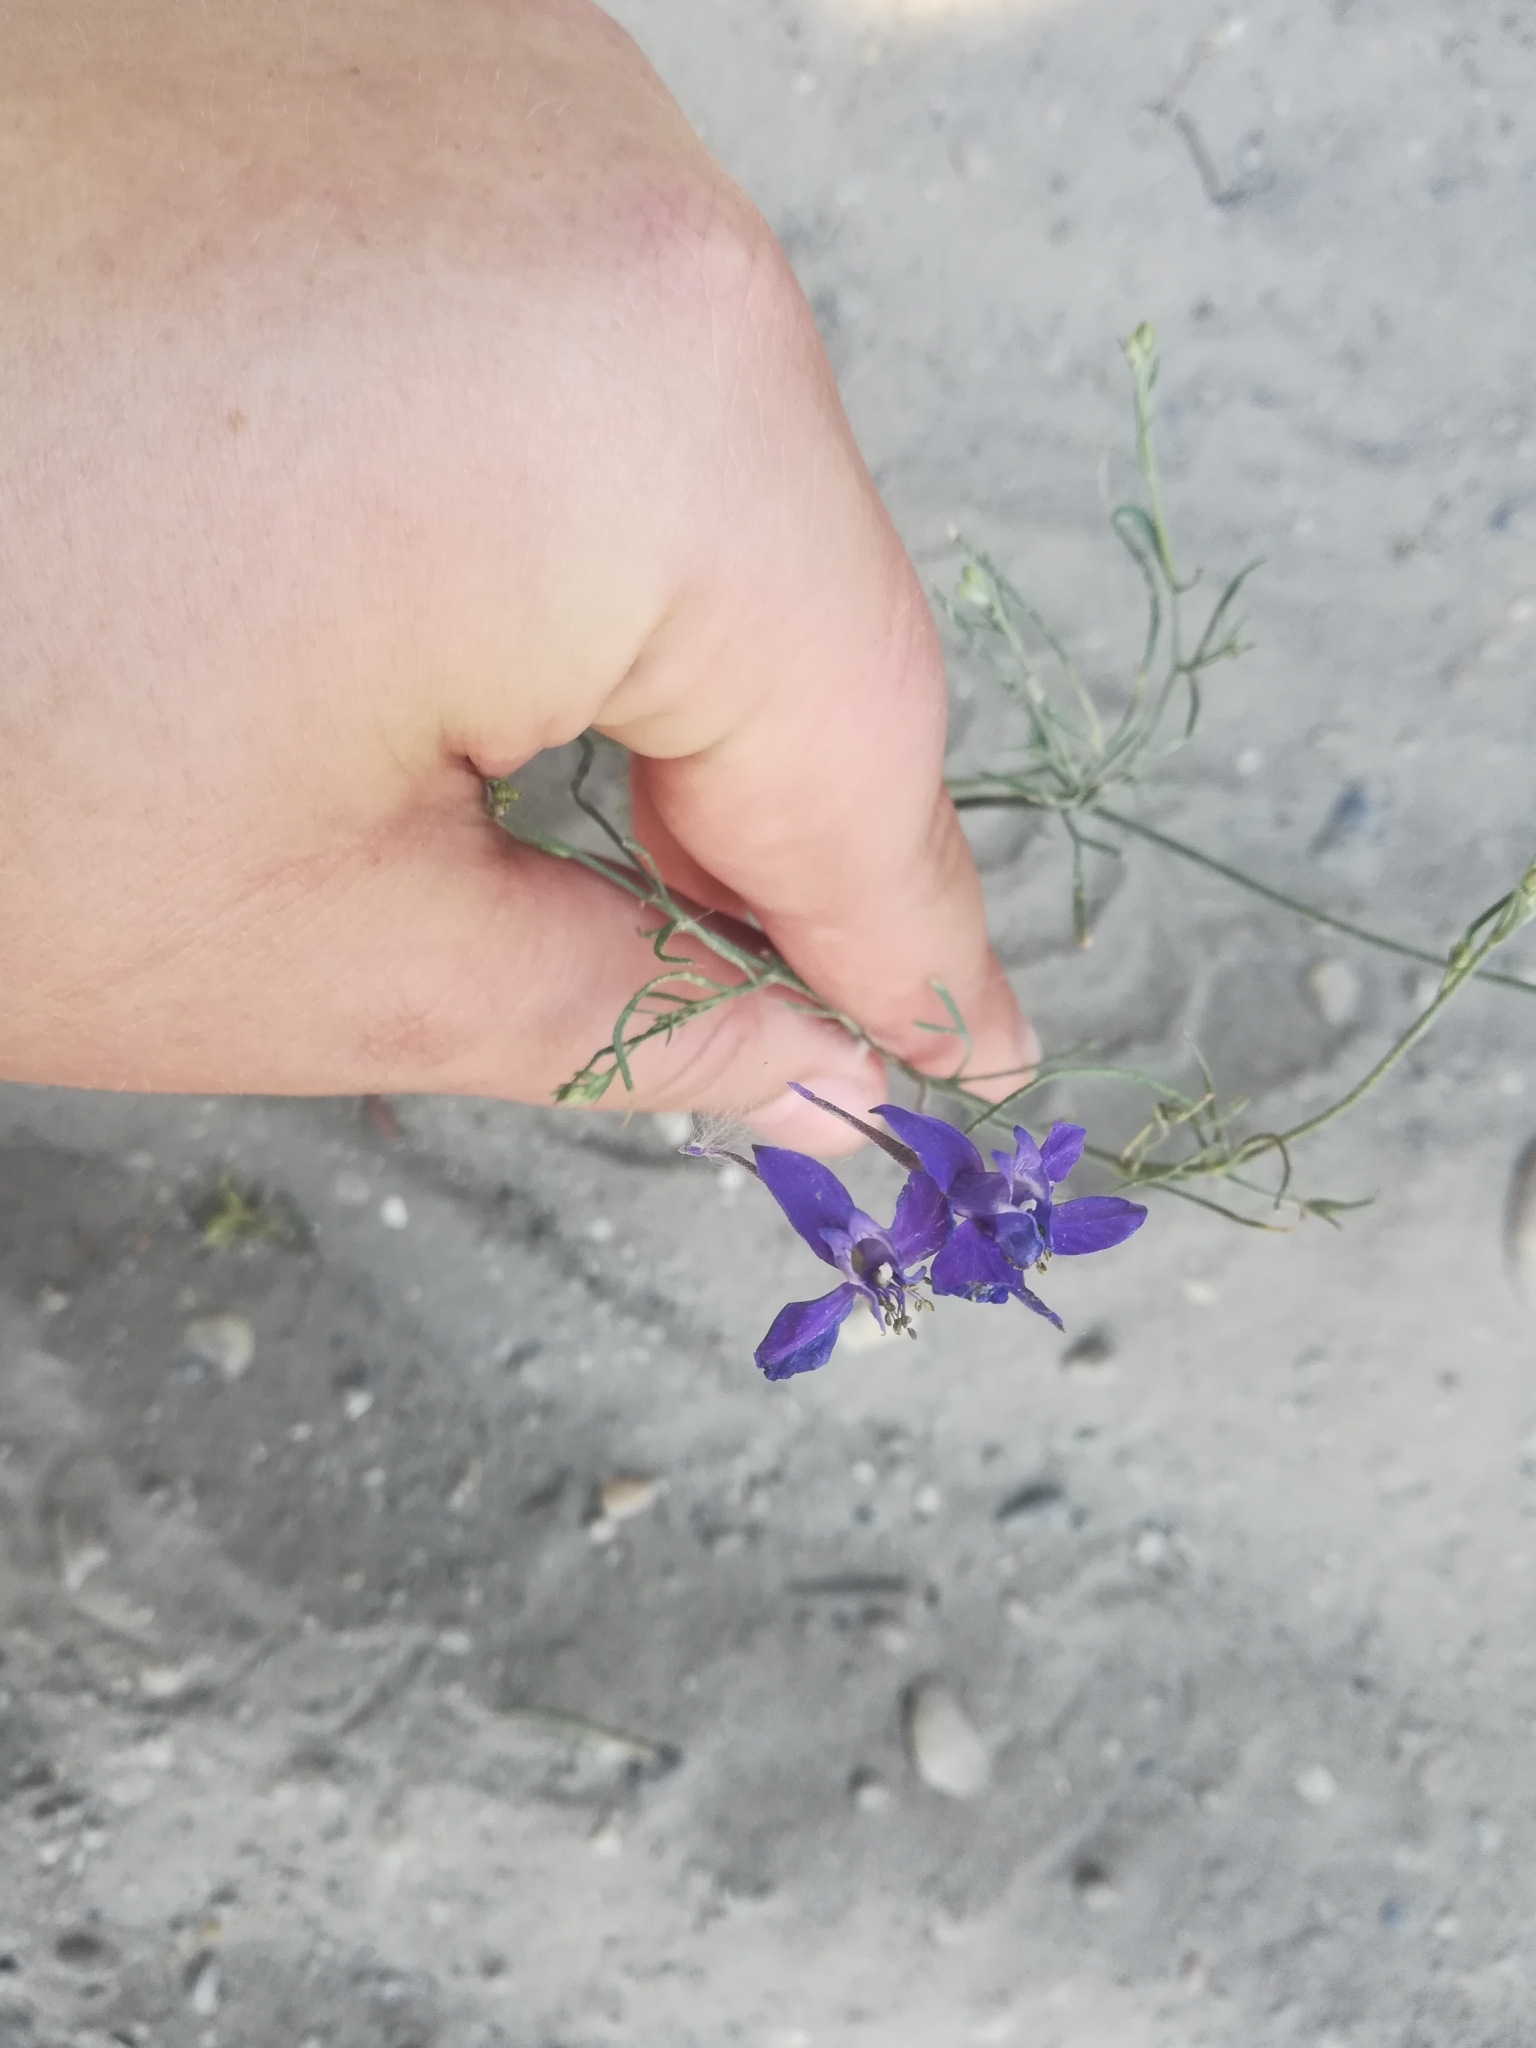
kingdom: Plantae
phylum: Tracheophyta
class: Magnoliopsida
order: Ranunculales
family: Ranunculaceae
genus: Delphinium
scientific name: Delphinium consolida
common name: Branching larkspur
